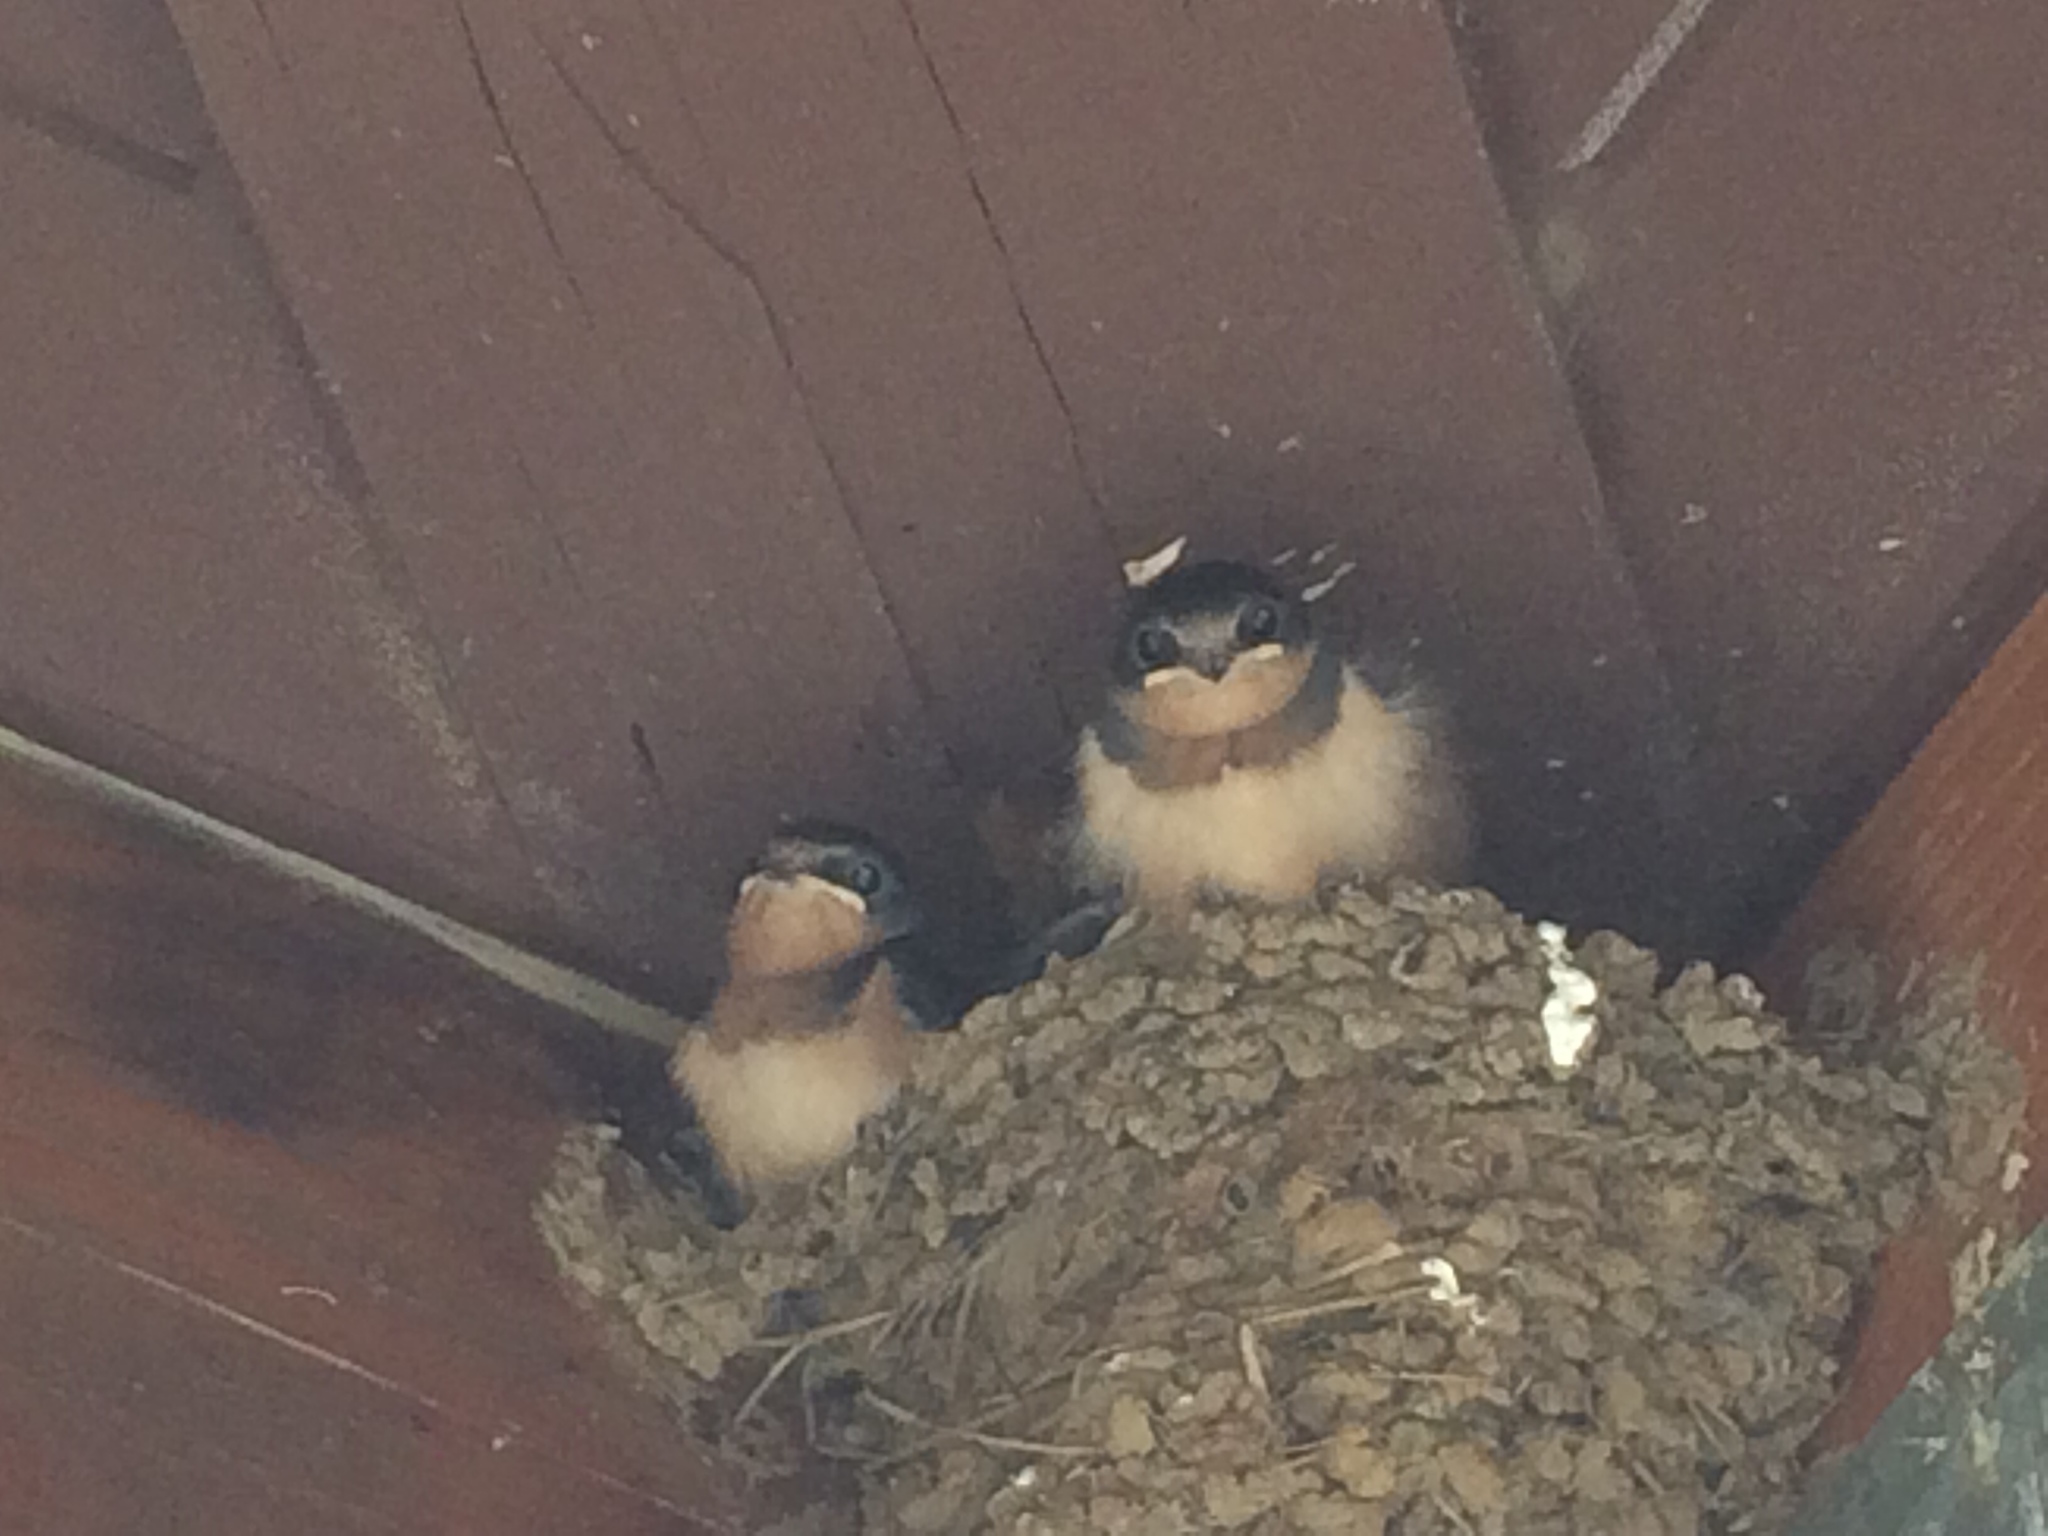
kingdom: Animalia
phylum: Chordata
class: Aves
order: Passeriformes
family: Hirundinidae
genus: Hirundo
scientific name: Hirundo rustica
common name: Barn swallow
